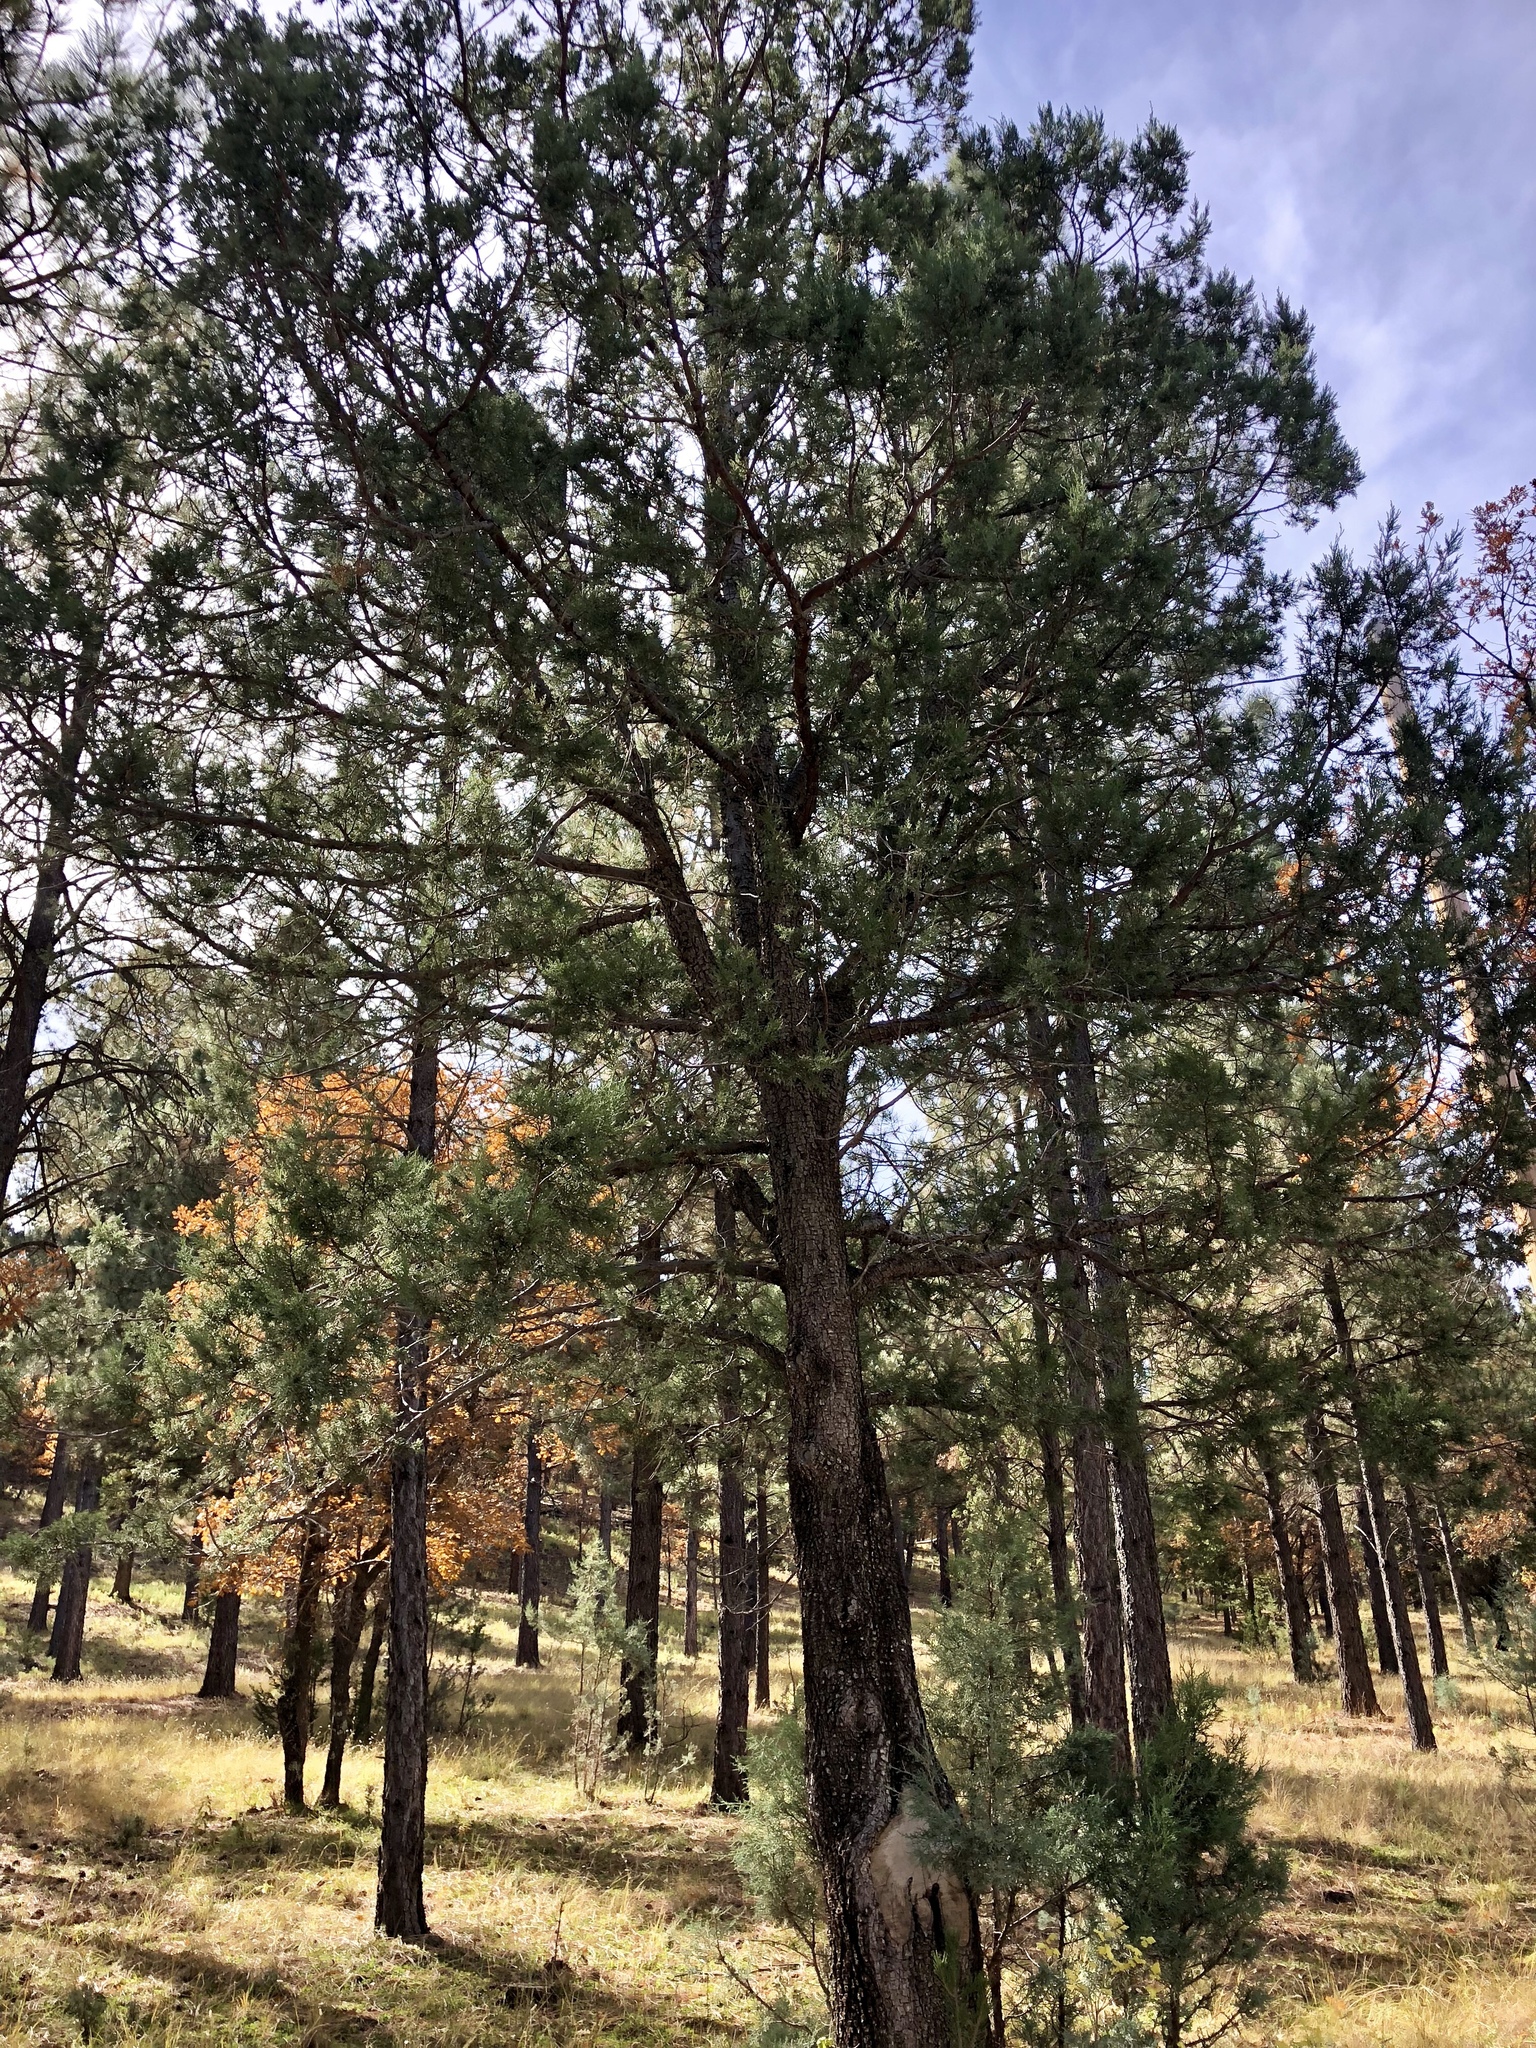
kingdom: Plantae
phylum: Tracheophyta
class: Pinopsida
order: Pinales
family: Cupressaceae
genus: Juniperus
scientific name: Juniperus deppeana
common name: Alligator juniper
